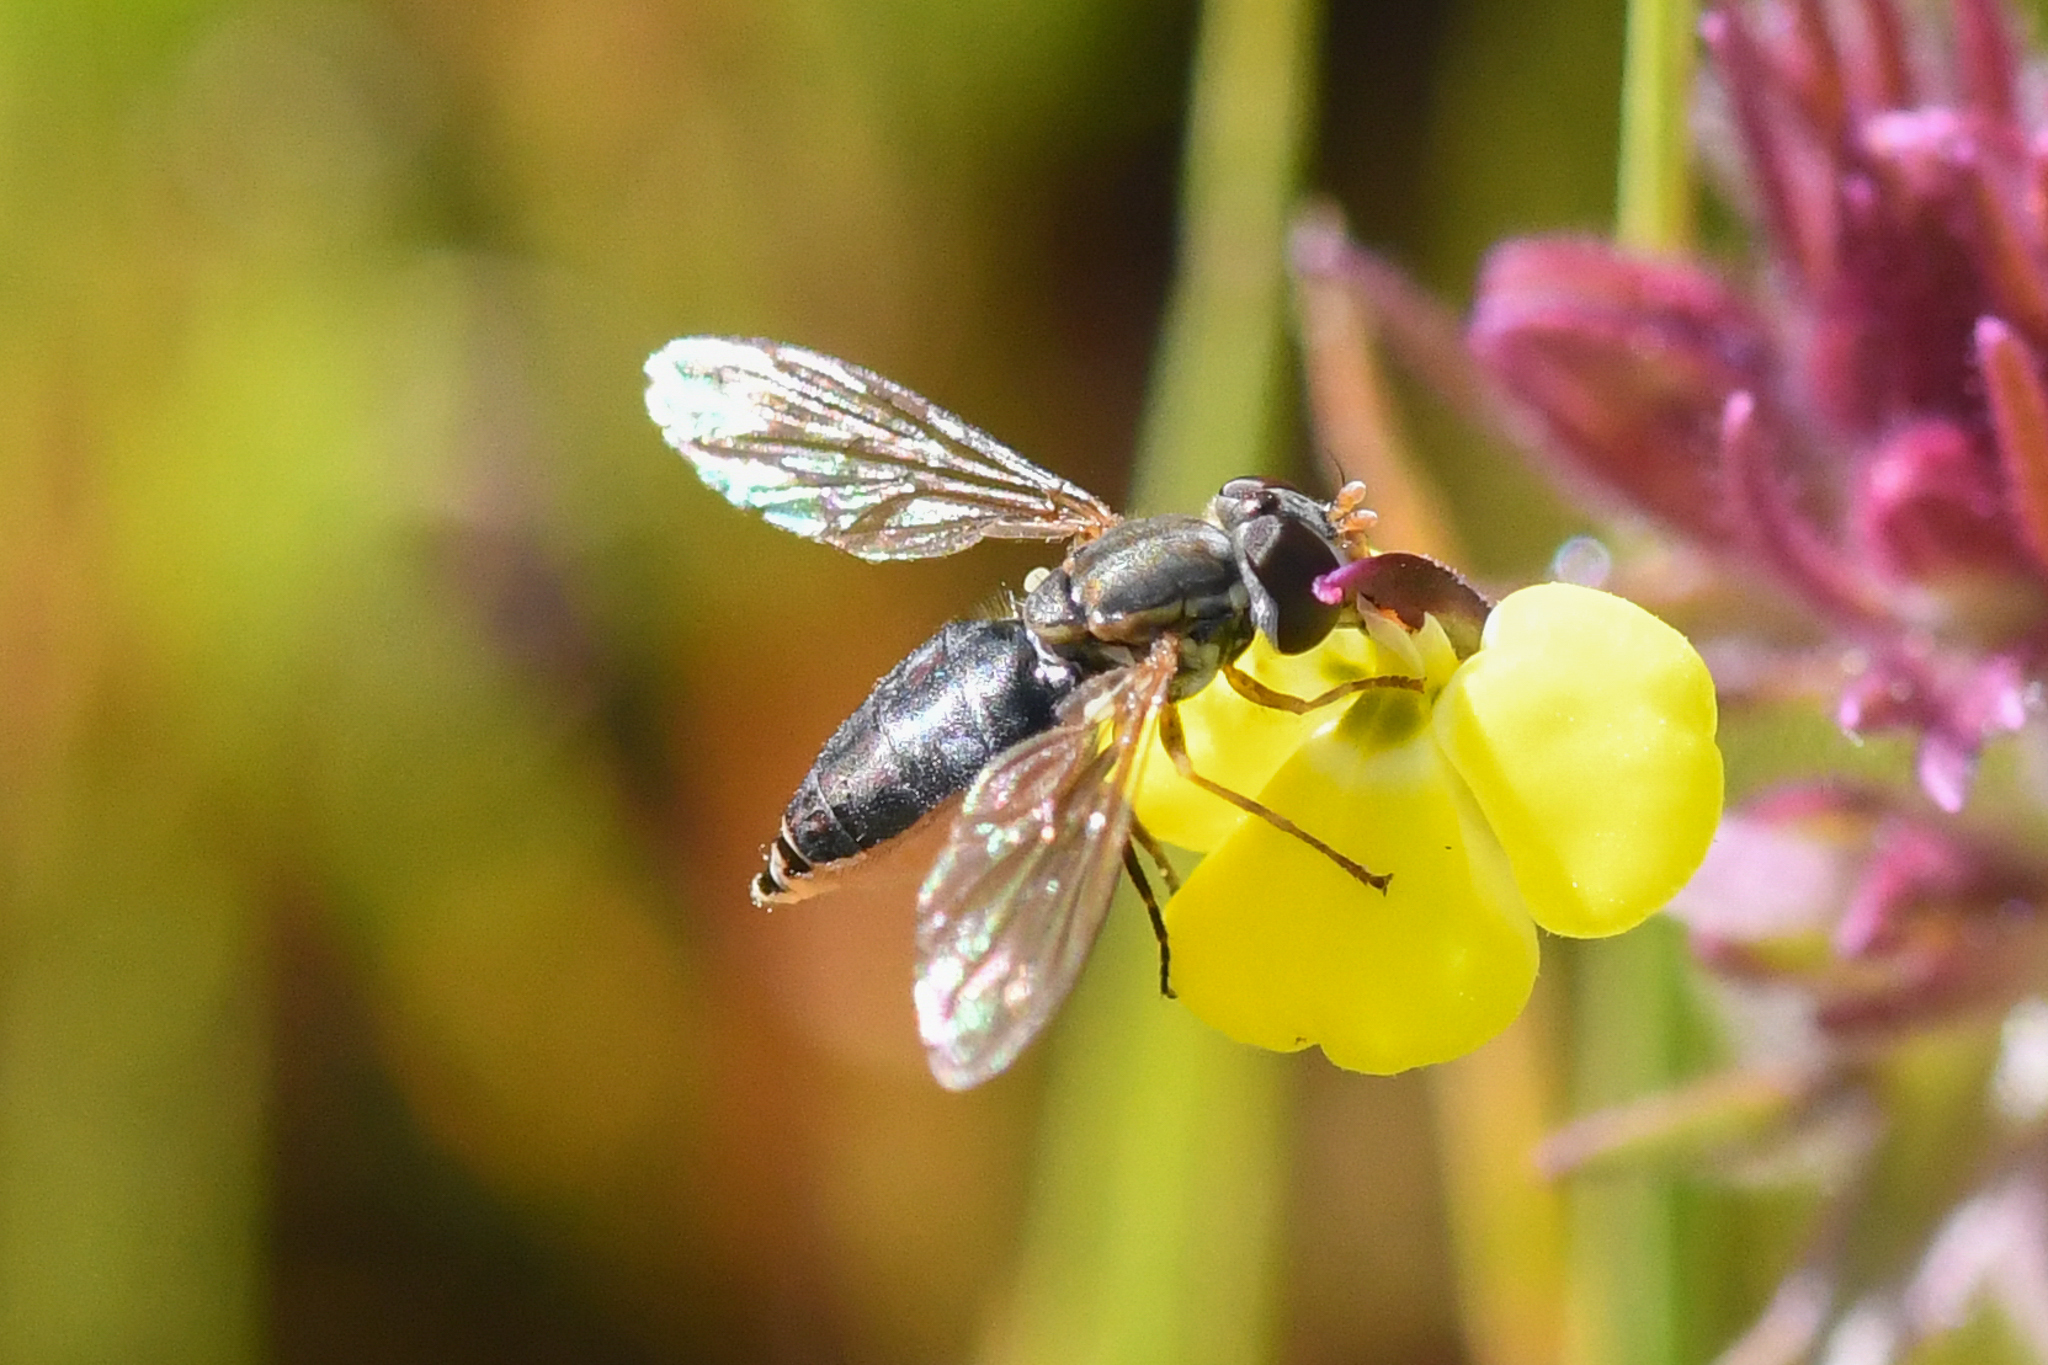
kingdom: Animalia
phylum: Arthropoda
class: Insecta
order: Diptera
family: Syrphidae
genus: Toxomerus
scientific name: Toxomerus marginatus
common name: Syrphid fly
